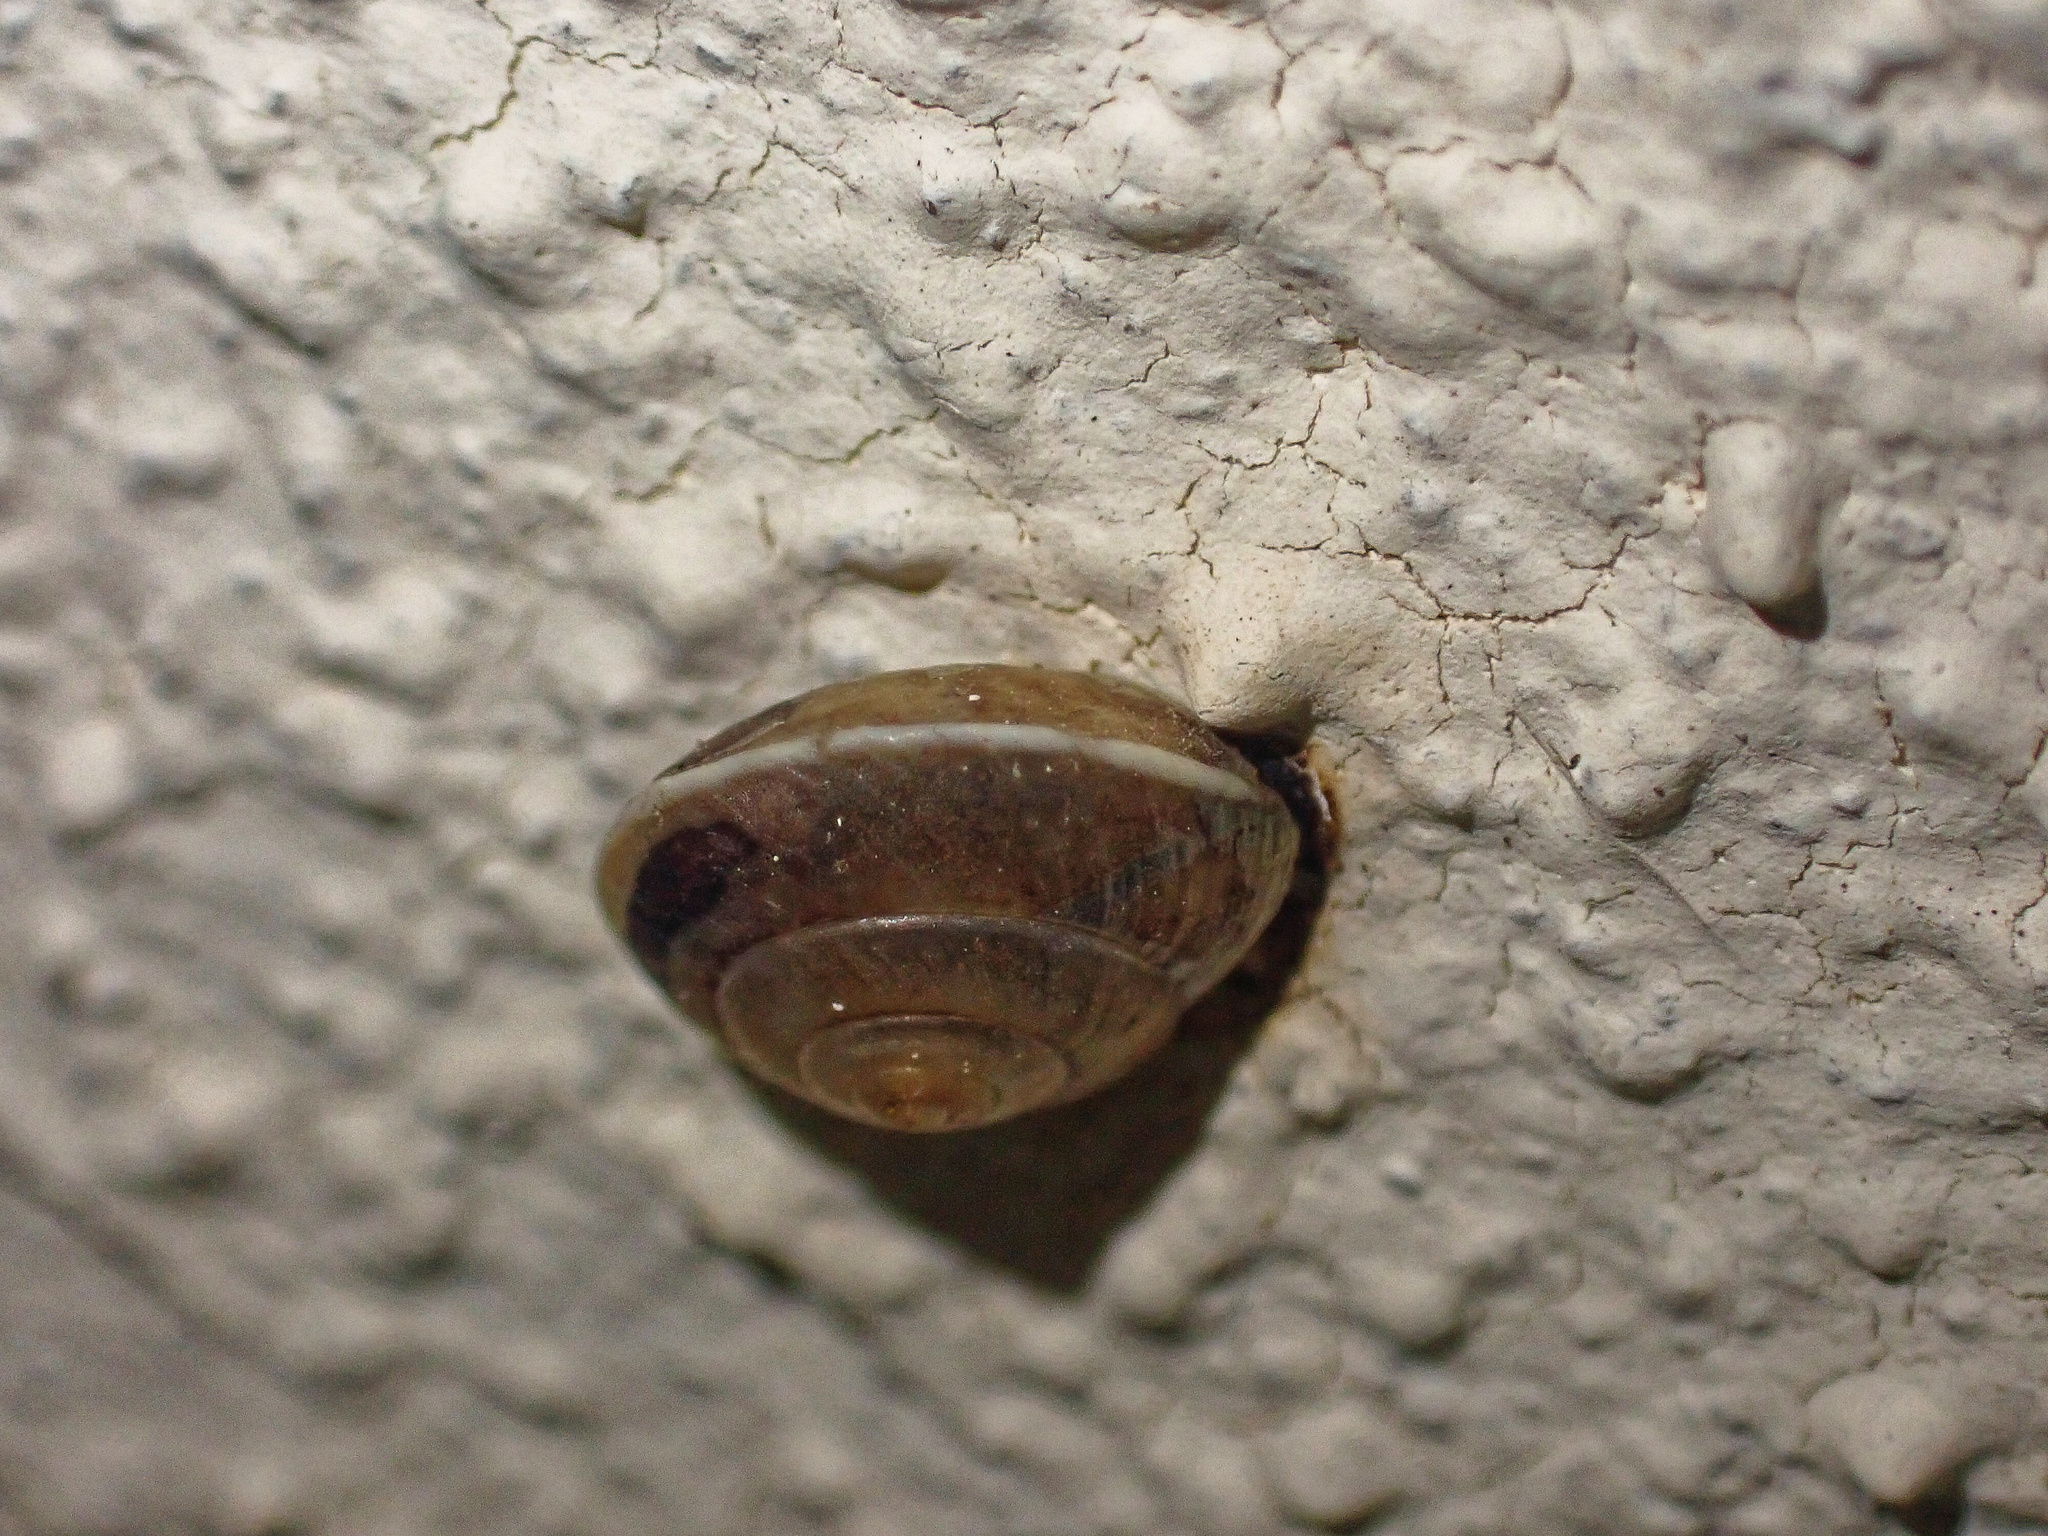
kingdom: Animalia
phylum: Mollusca
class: Gastropoda
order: Stylommatophora
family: Hygromiidae
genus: Hygromia
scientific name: Hygromia cinctella
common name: Girdled snail
